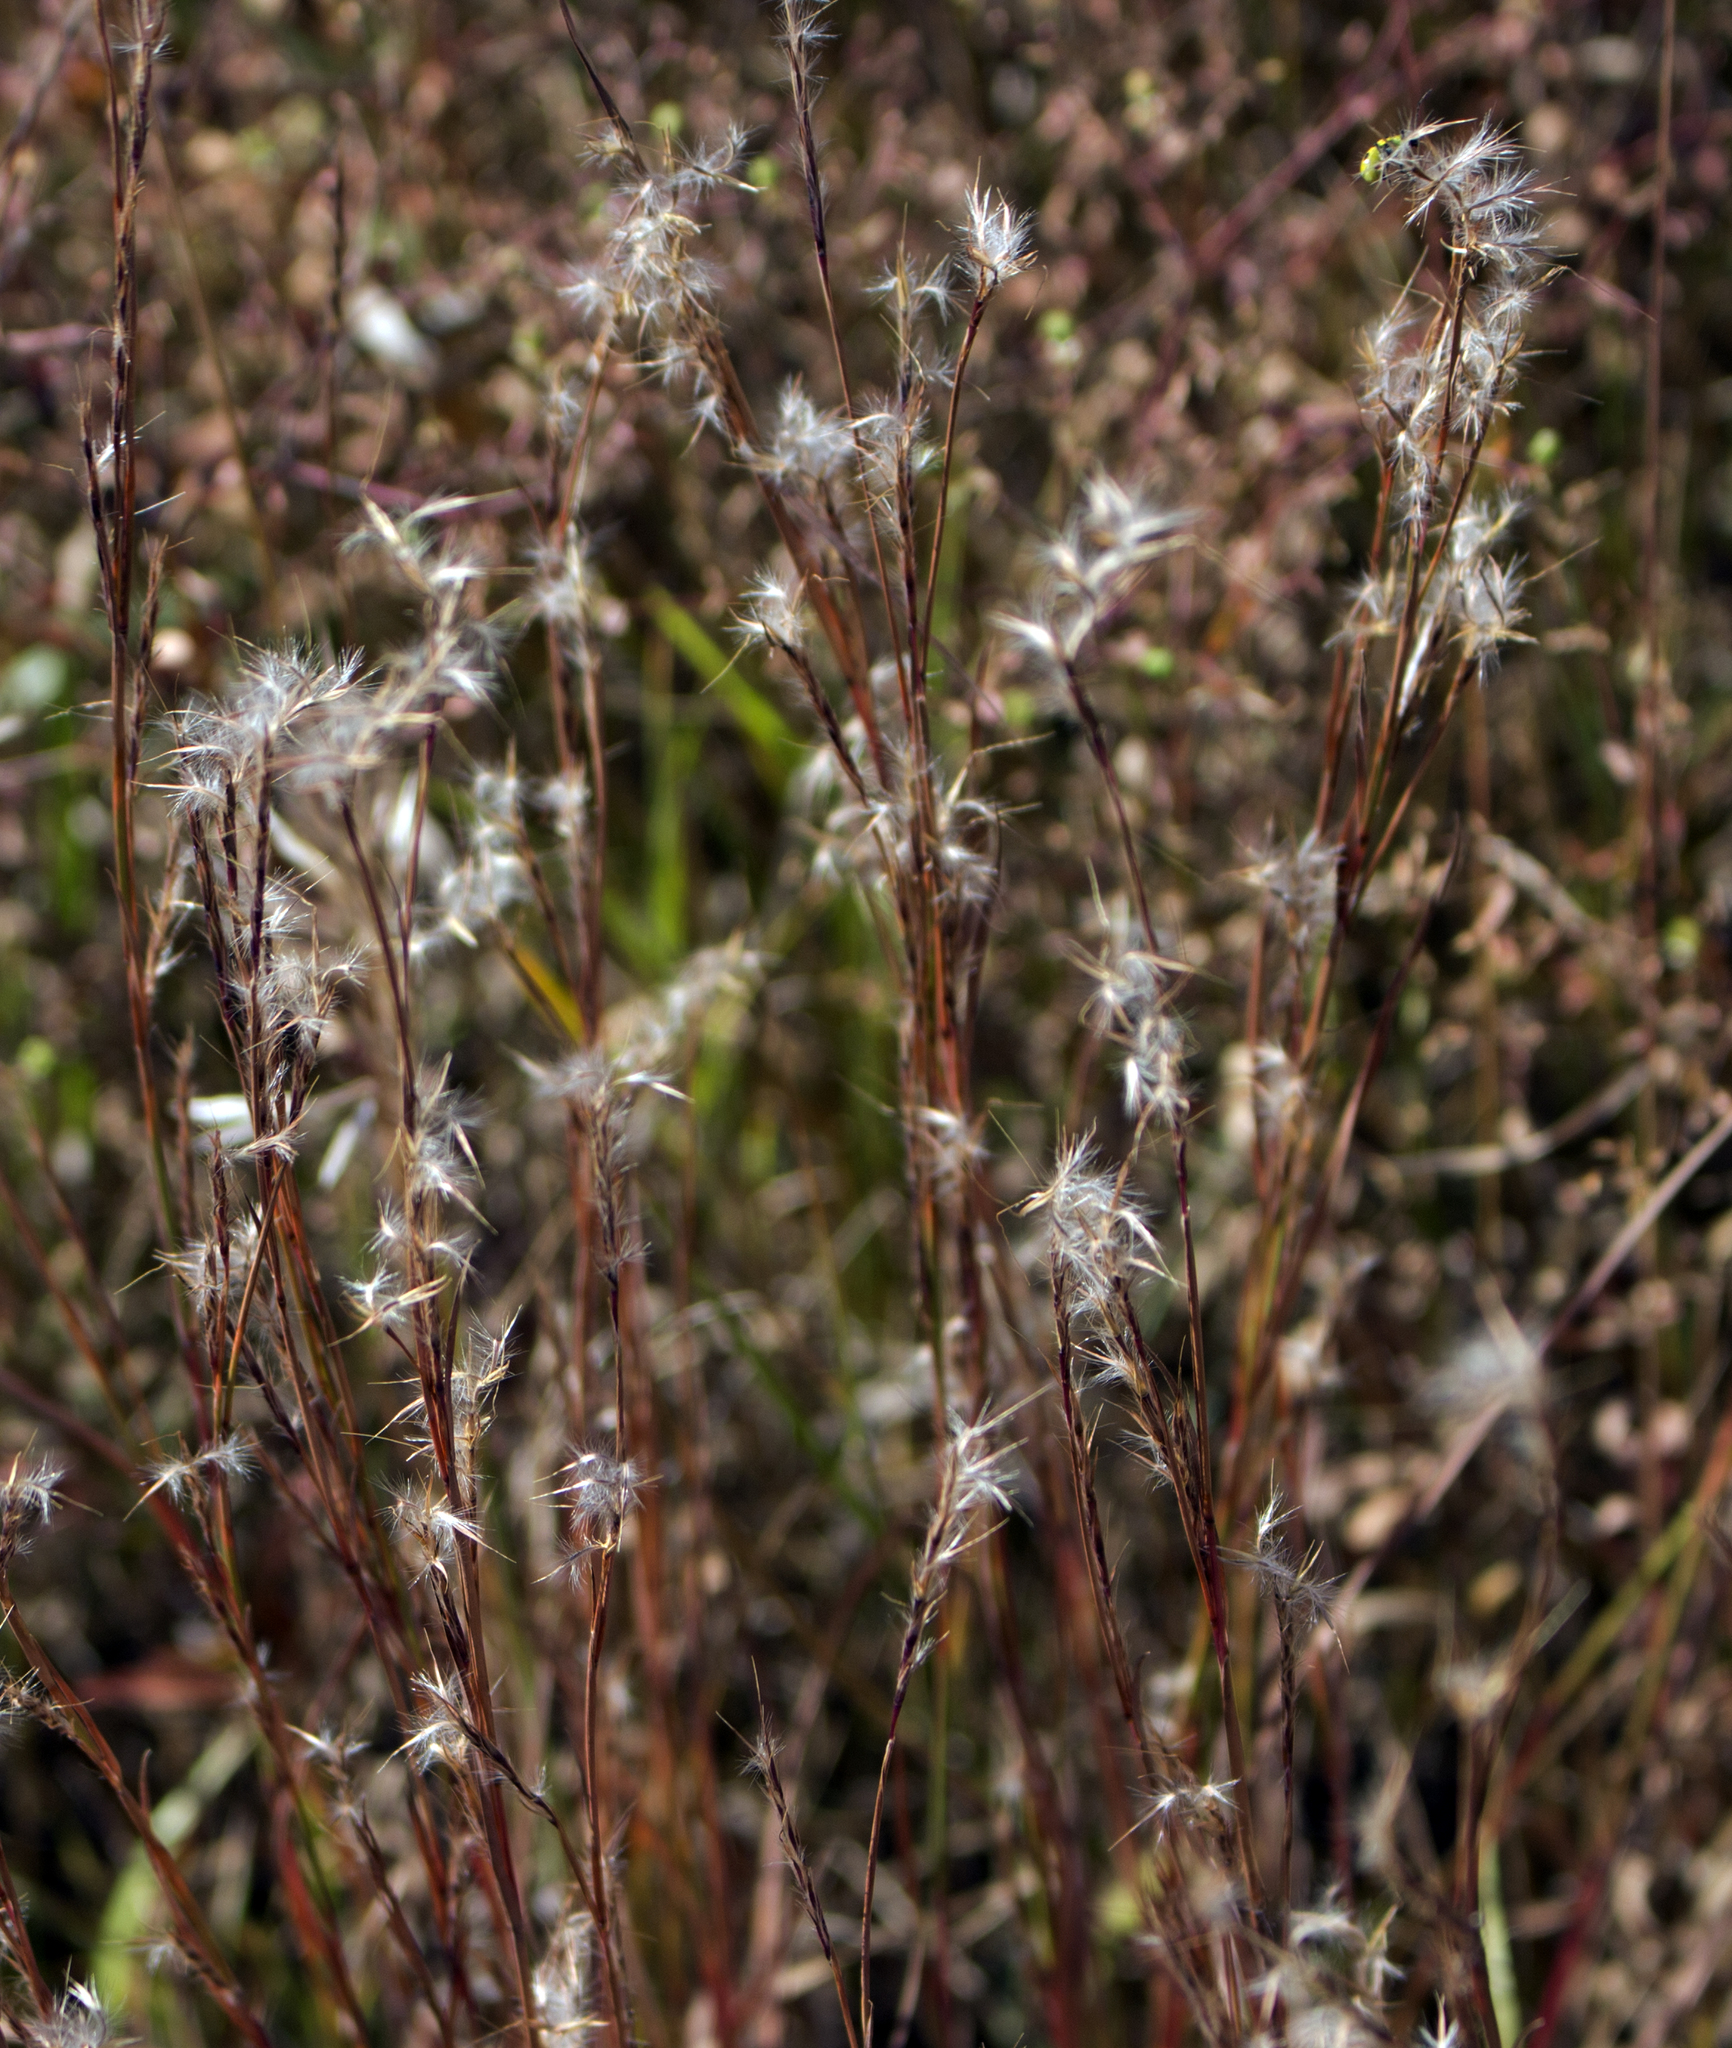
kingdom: Plantae
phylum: Tracheophyta
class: Liliopsida
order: Poales
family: Poaceae
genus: Schizachyrium
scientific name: Schizachyrium scoparium
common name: Little bluestem
